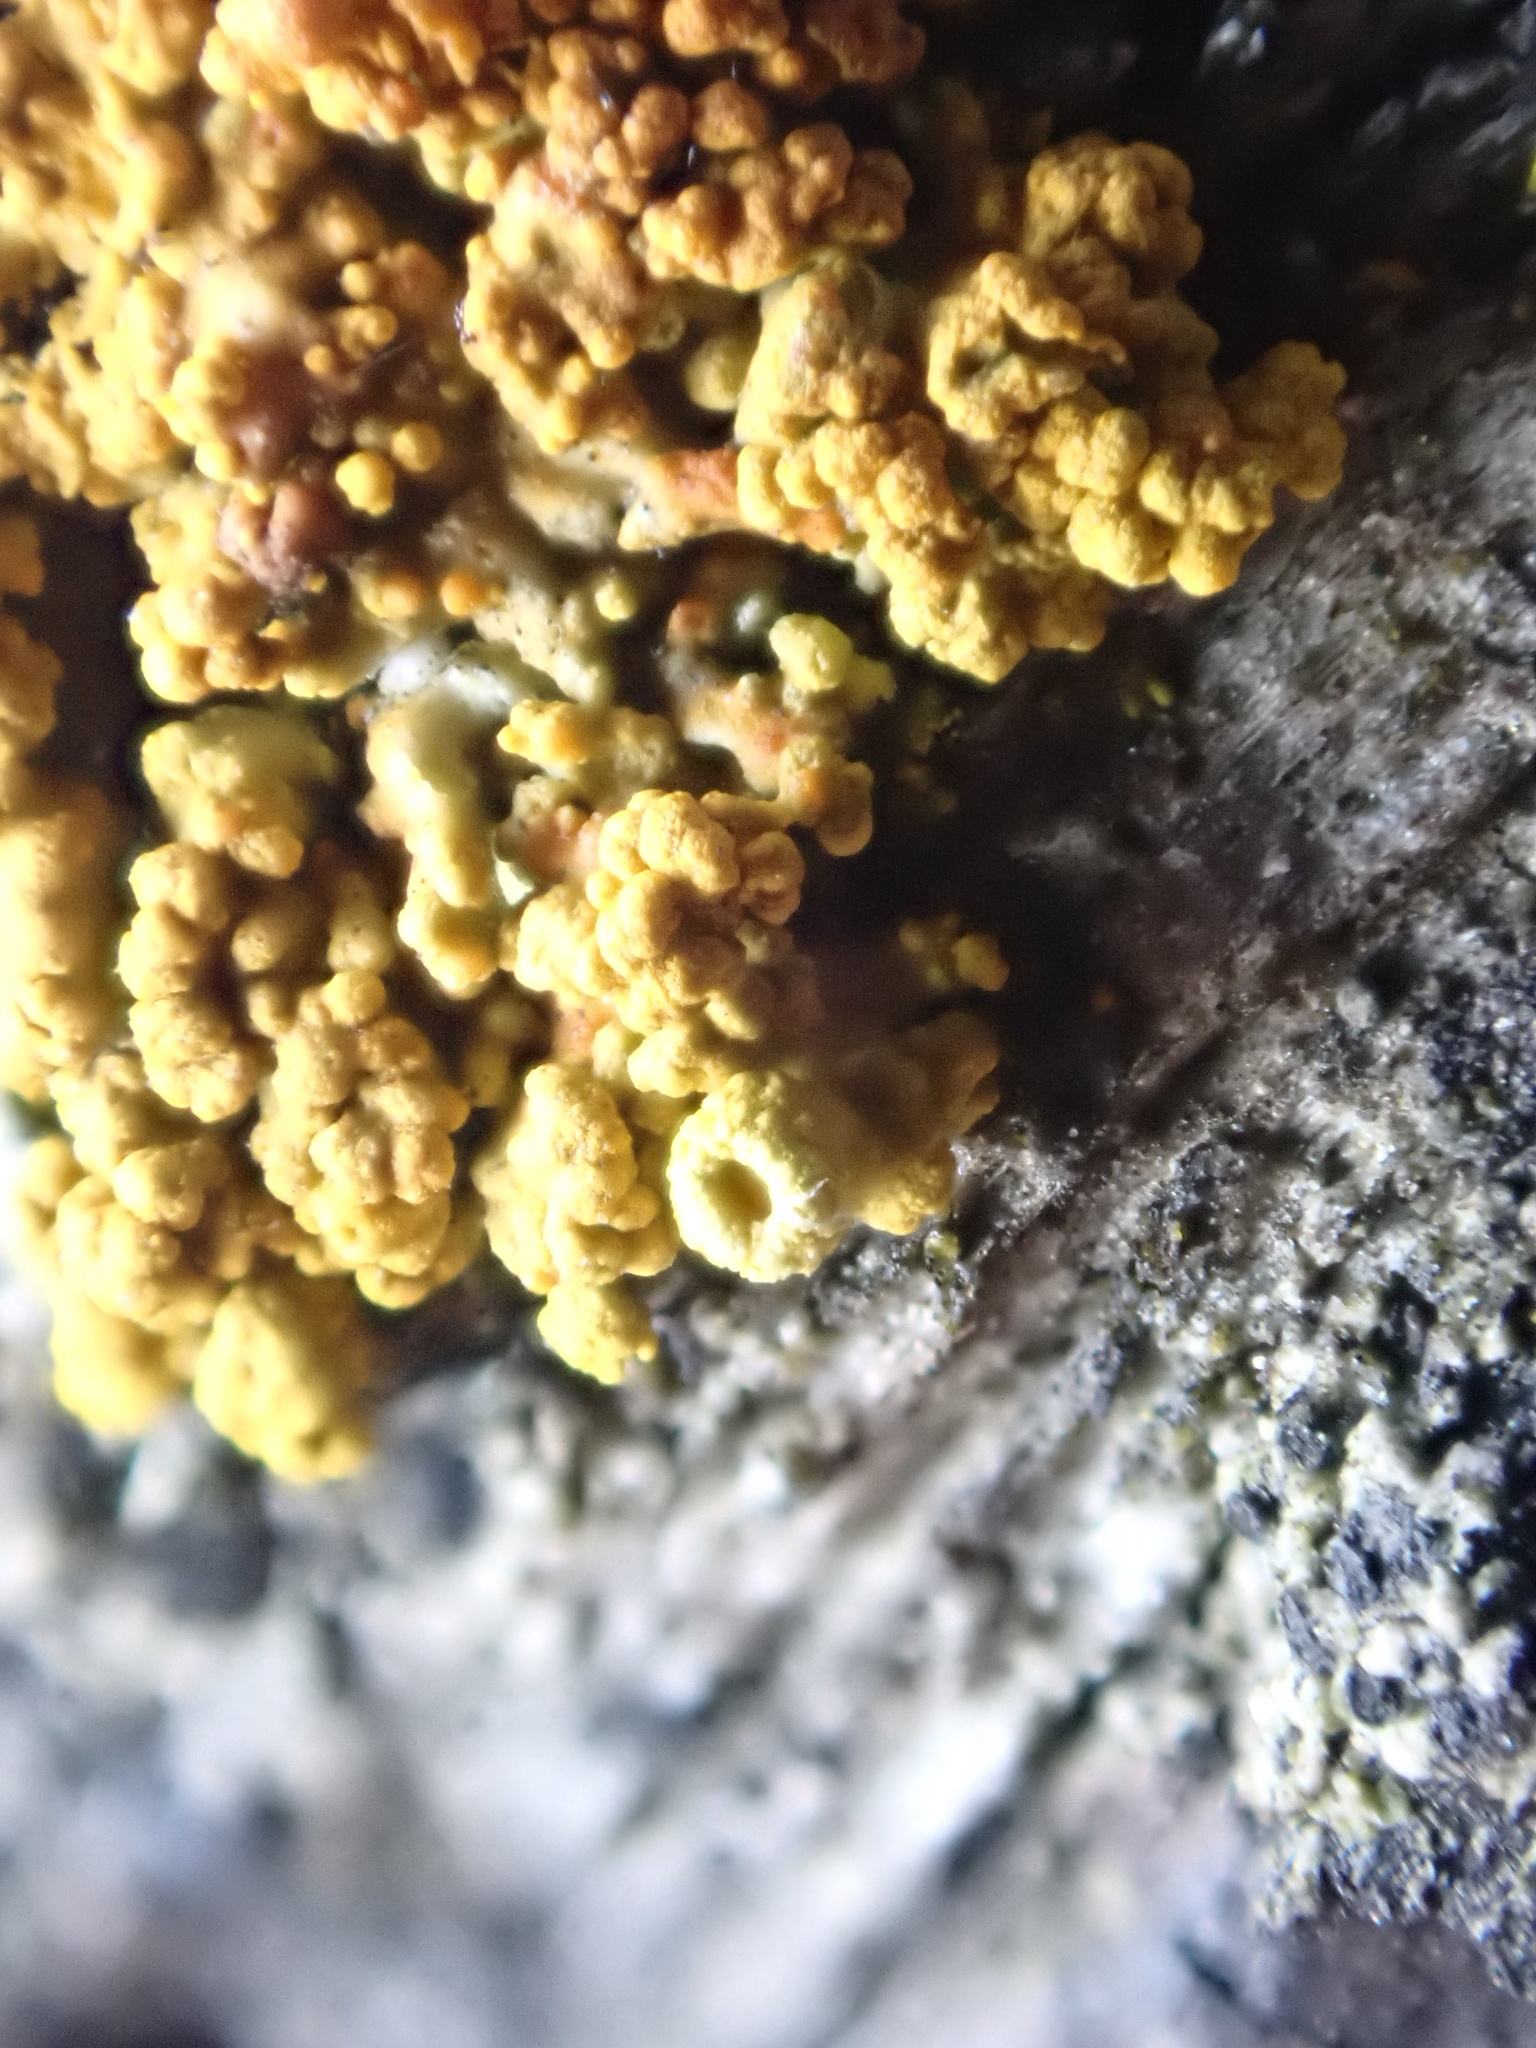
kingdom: Fungi
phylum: Ascomycota
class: Lecanoromycetes
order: Teloschistales
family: Teloschistaceae
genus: Polycauliona
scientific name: Polycauliona polycarpa
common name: Pin-cushion sunburst lichen
